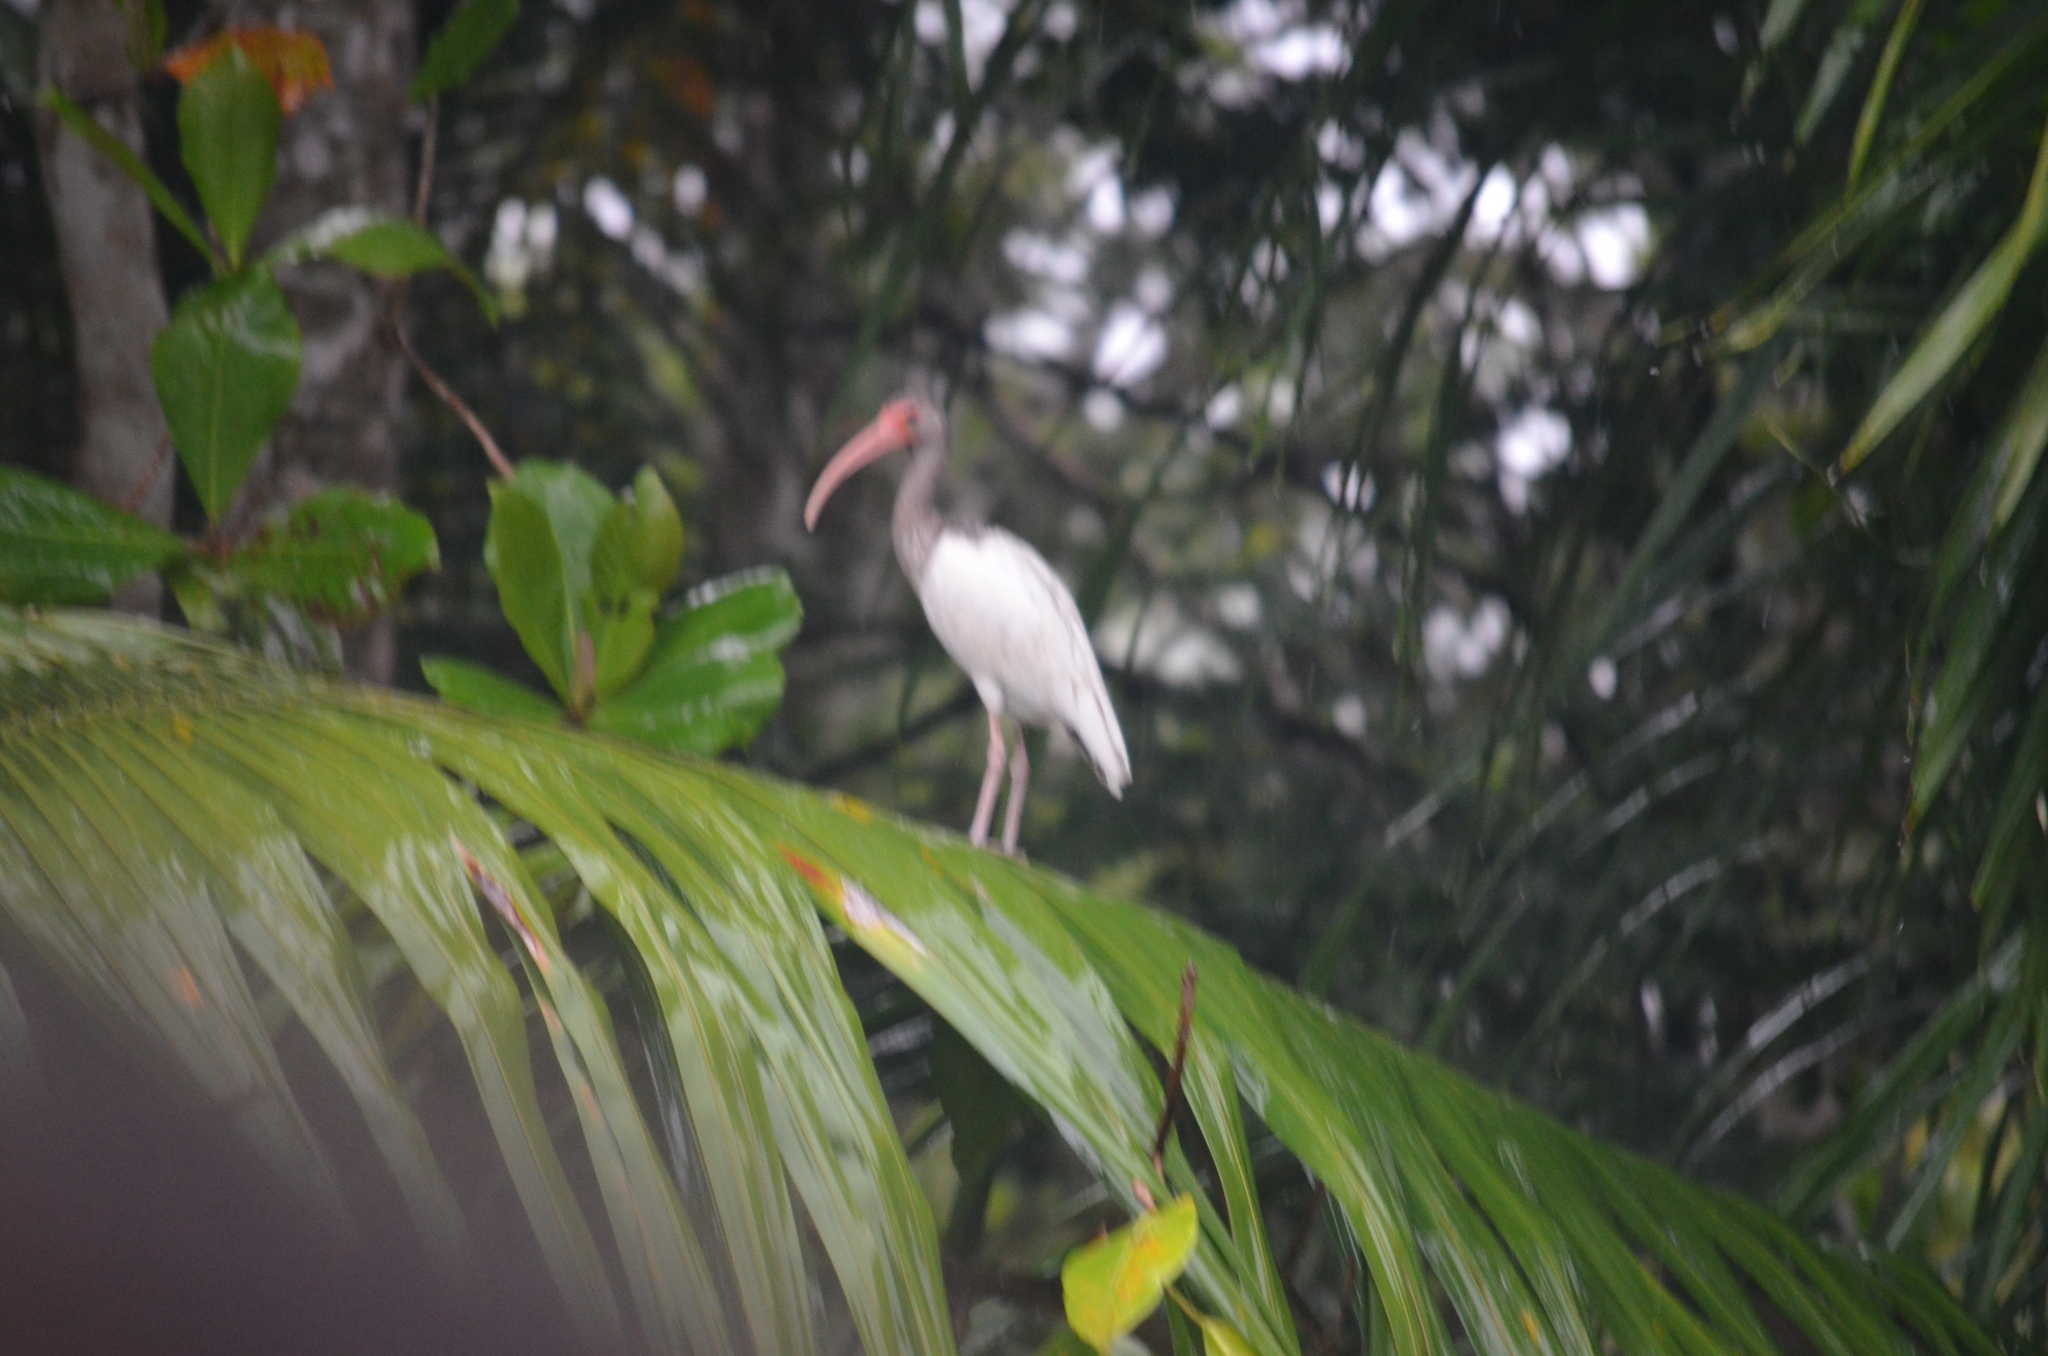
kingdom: Animalia
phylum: Chordata
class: Aves
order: Pelecaniformes
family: Threskiornithidae
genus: Eudocimus
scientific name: Eudocimus albus
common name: White ibis
